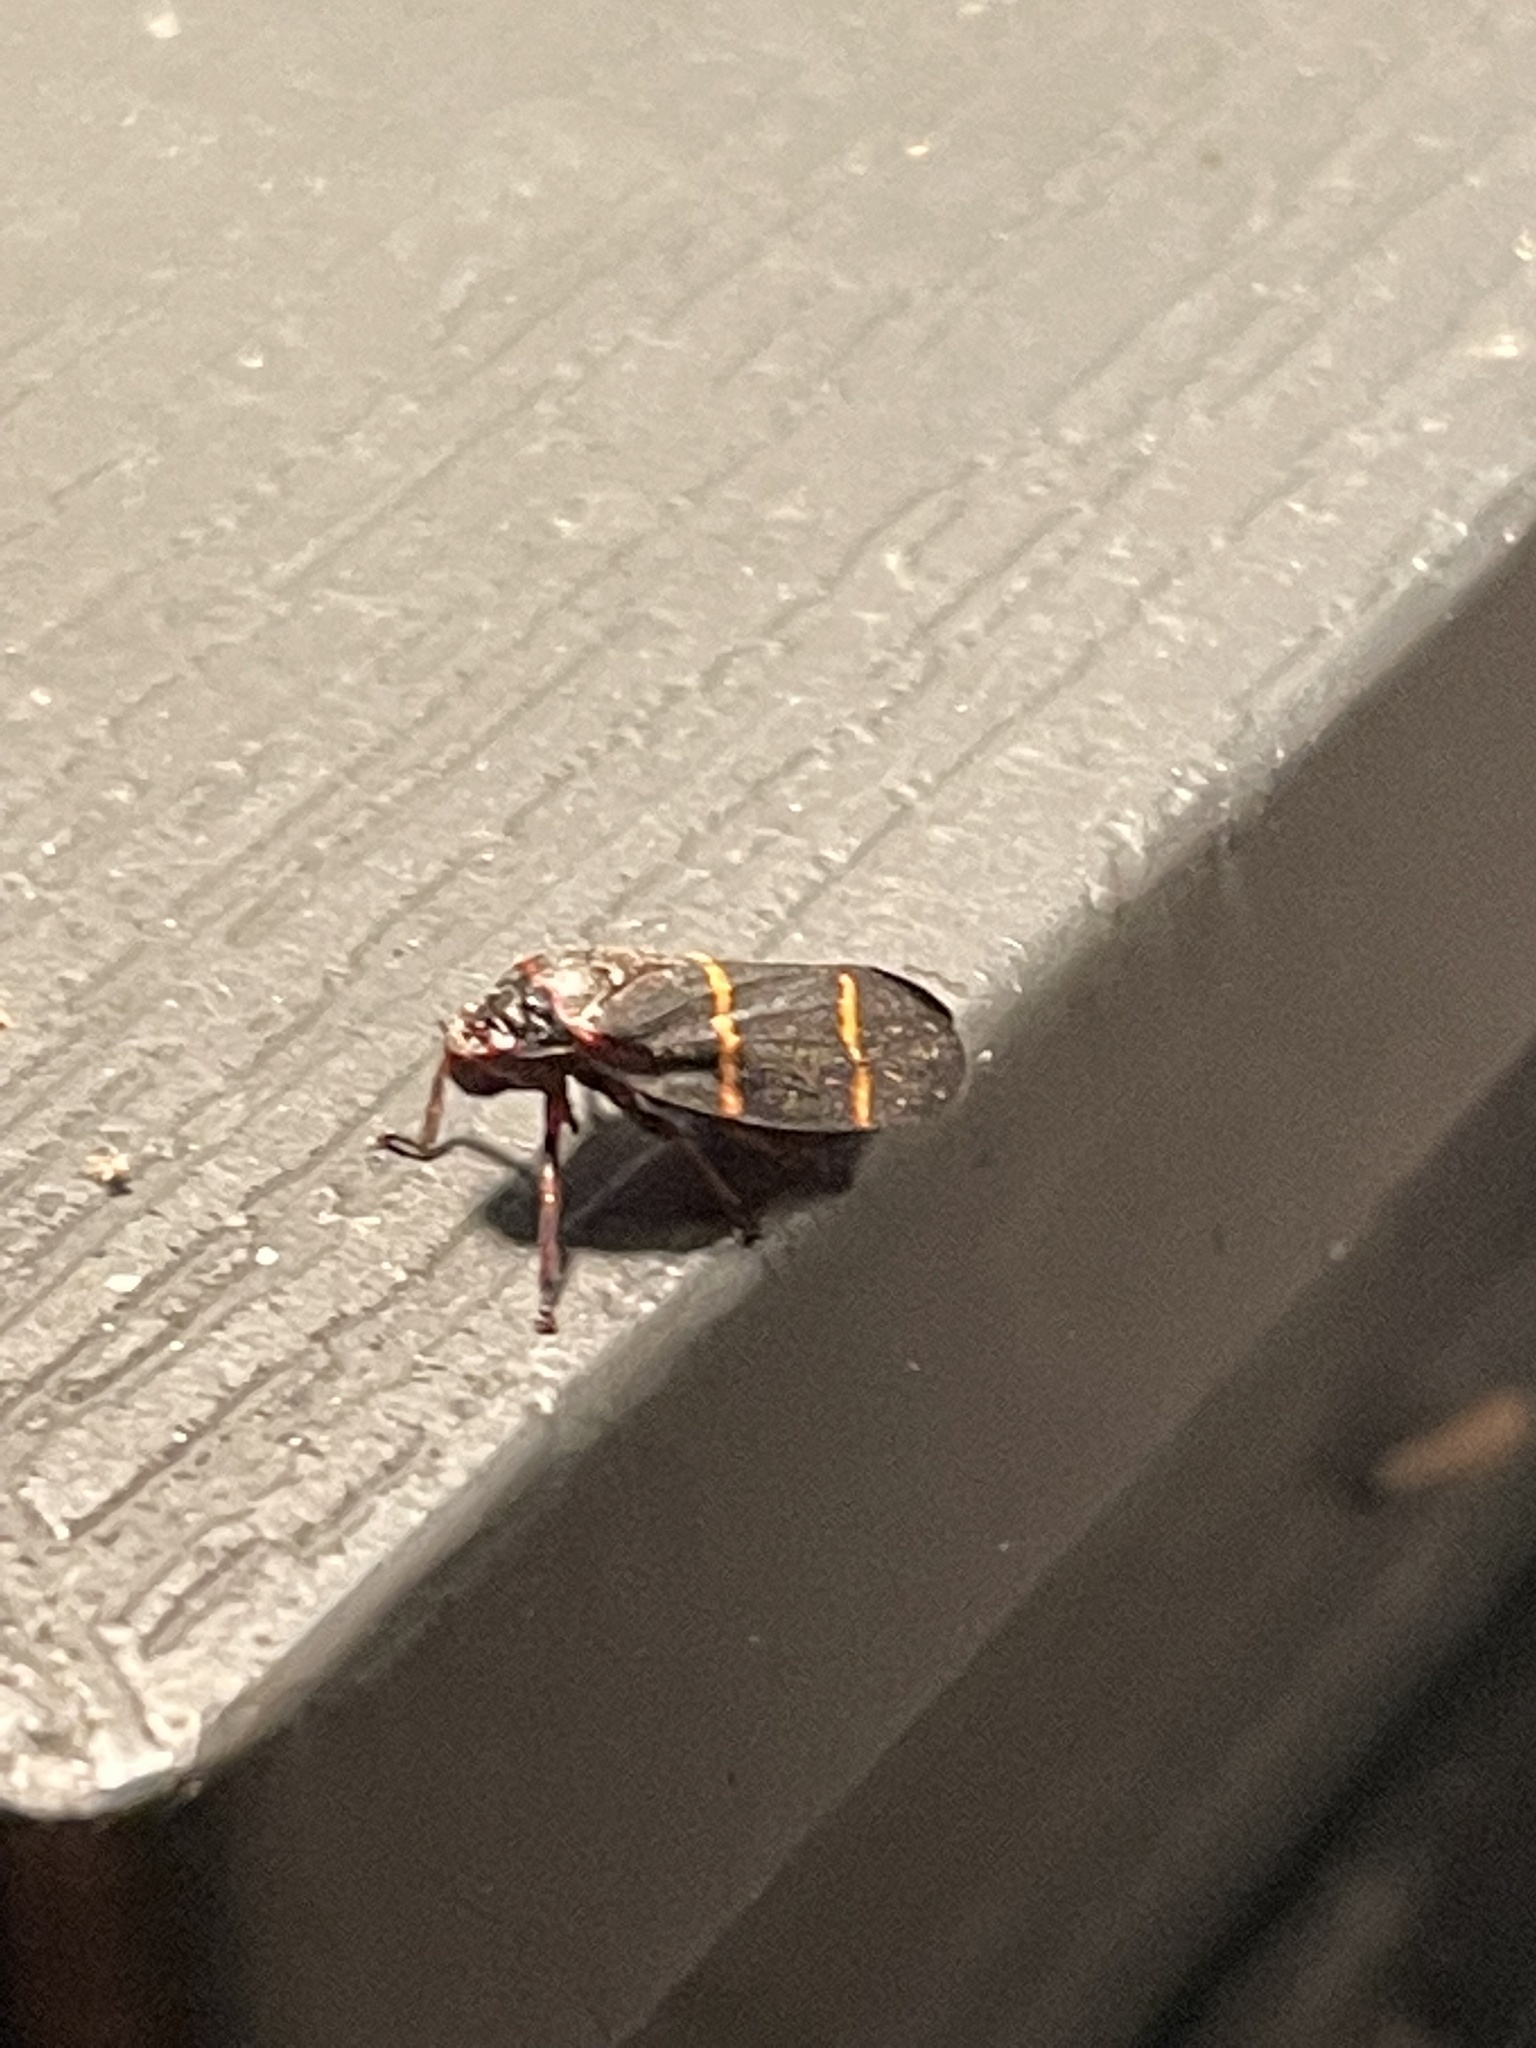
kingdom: Animalia
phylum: Arthropoda
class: Insecta
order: Hemiptera
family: Cercopidae
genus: Prosapia
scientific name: Prosapia bicincta
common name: Twolined spittlebug
